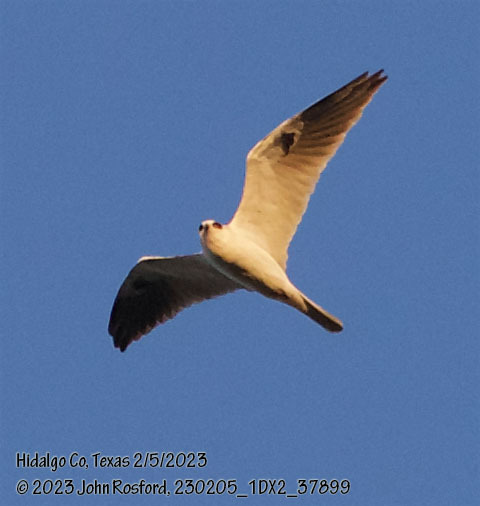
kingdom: Animalia
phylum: Chordata
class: Aves
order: Accipitriformes
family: Accipitridae
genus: Elanus
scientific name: Elanus leucurus
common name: White-tailed kite
